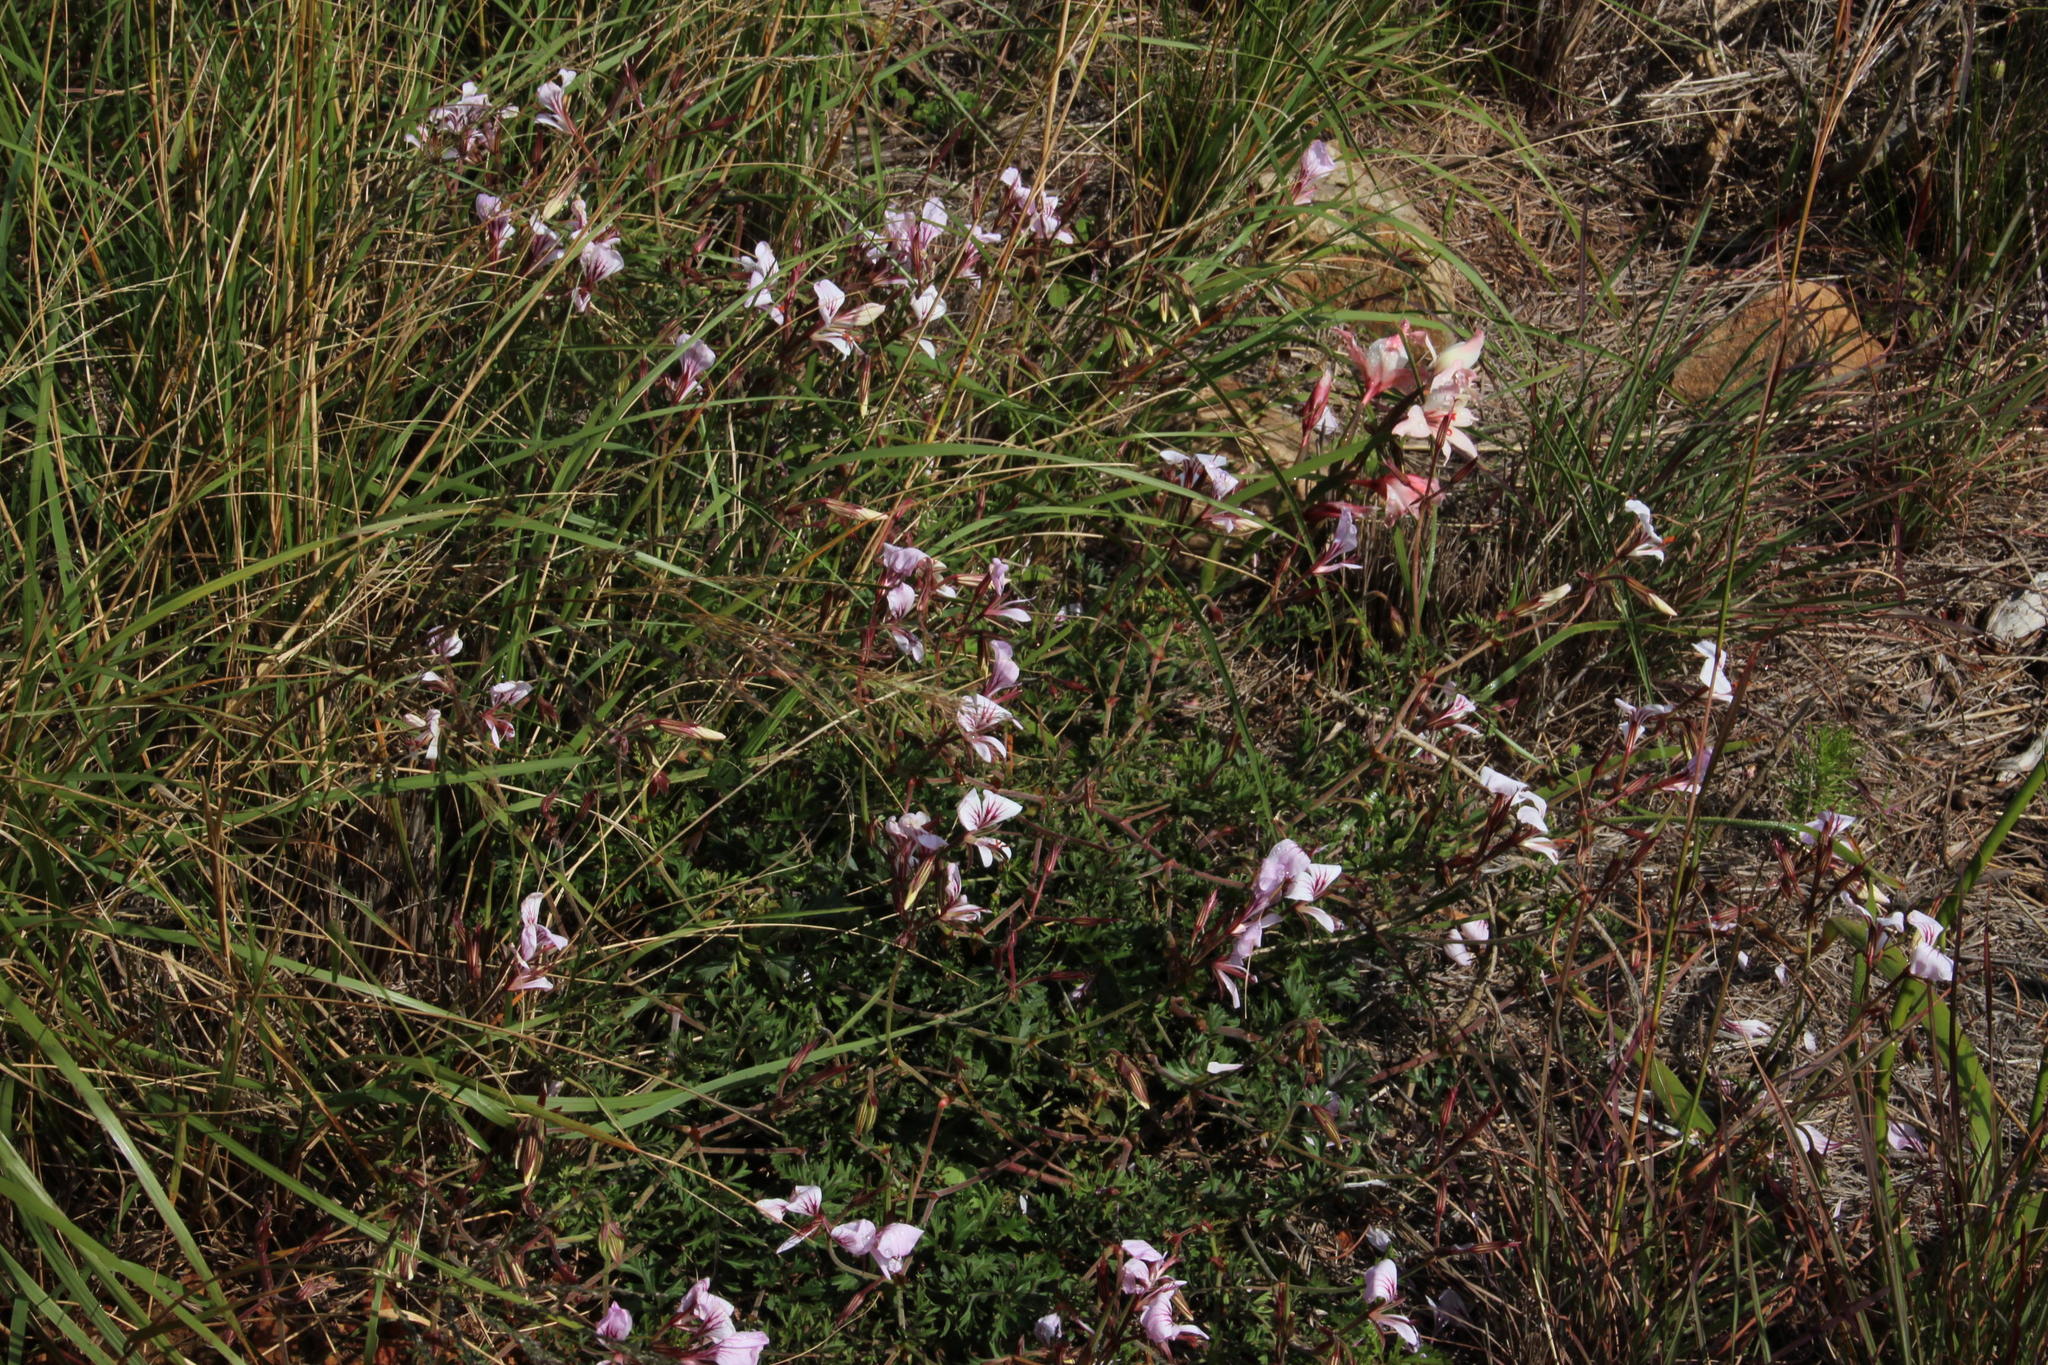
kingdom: Plantae
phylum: Tracheophyta
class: Magnoliopsida
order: Geraniales
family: Geraniaceae
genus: Pelargonium
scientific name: Pelargonium myrrhifolium
